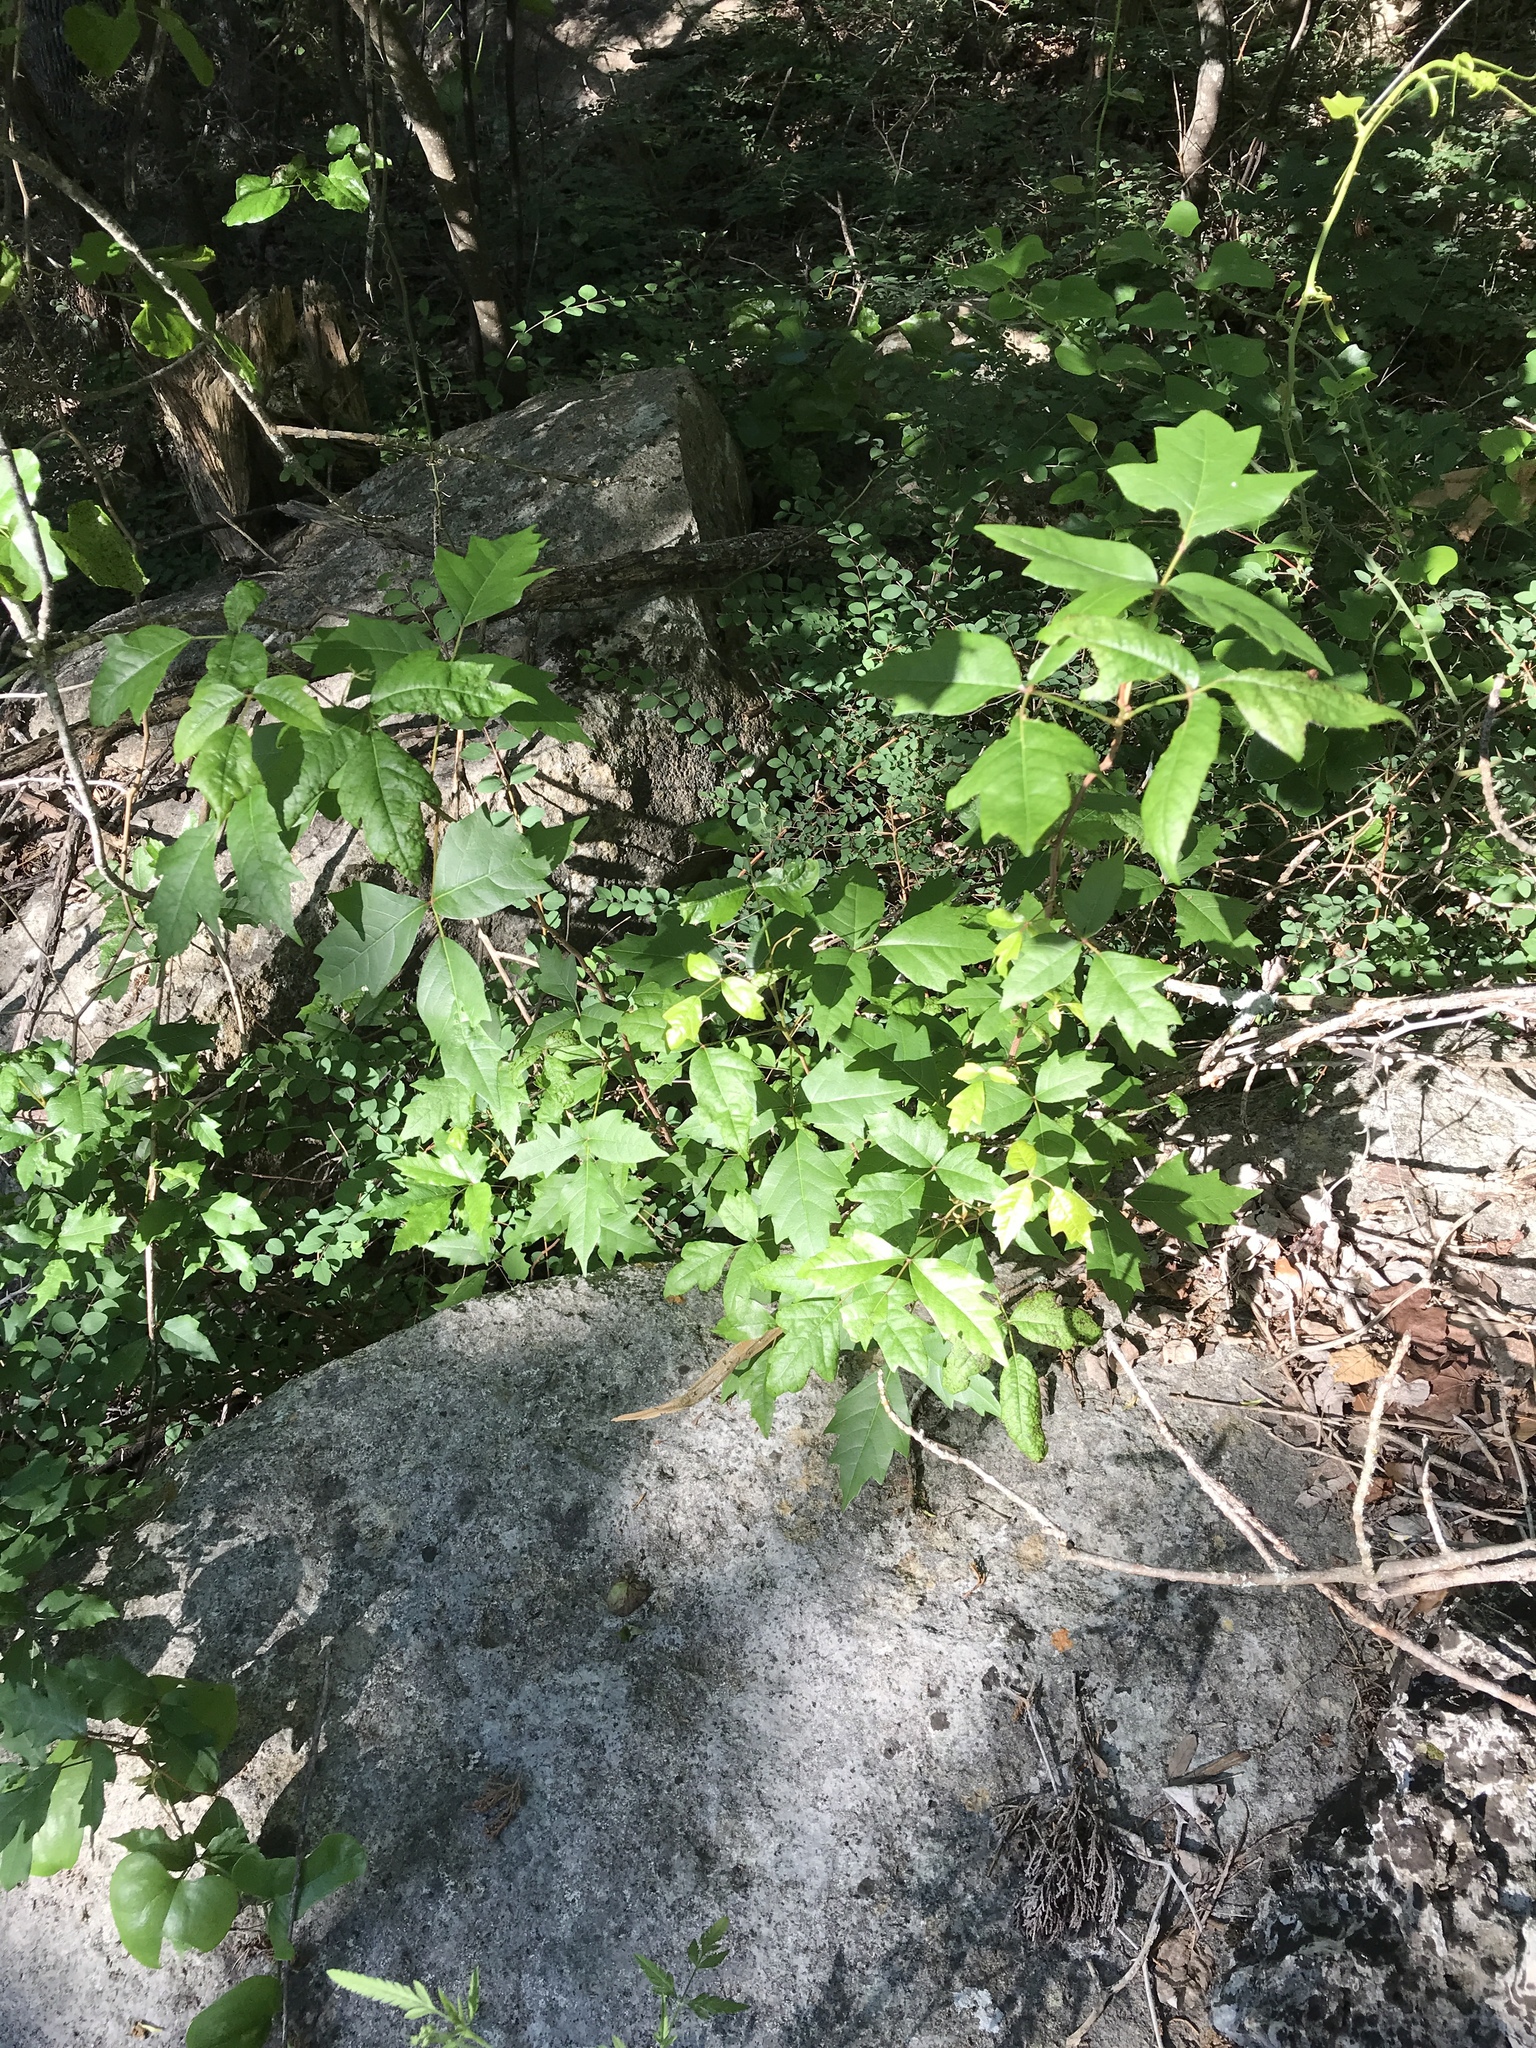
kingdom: Plantae
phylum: Tracheophyta
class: Magnoliopsida
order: Sapindales
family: Anacardiaceae
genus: Toxicodendron
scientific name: Toxicodendron radicans
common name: Poison ivy
